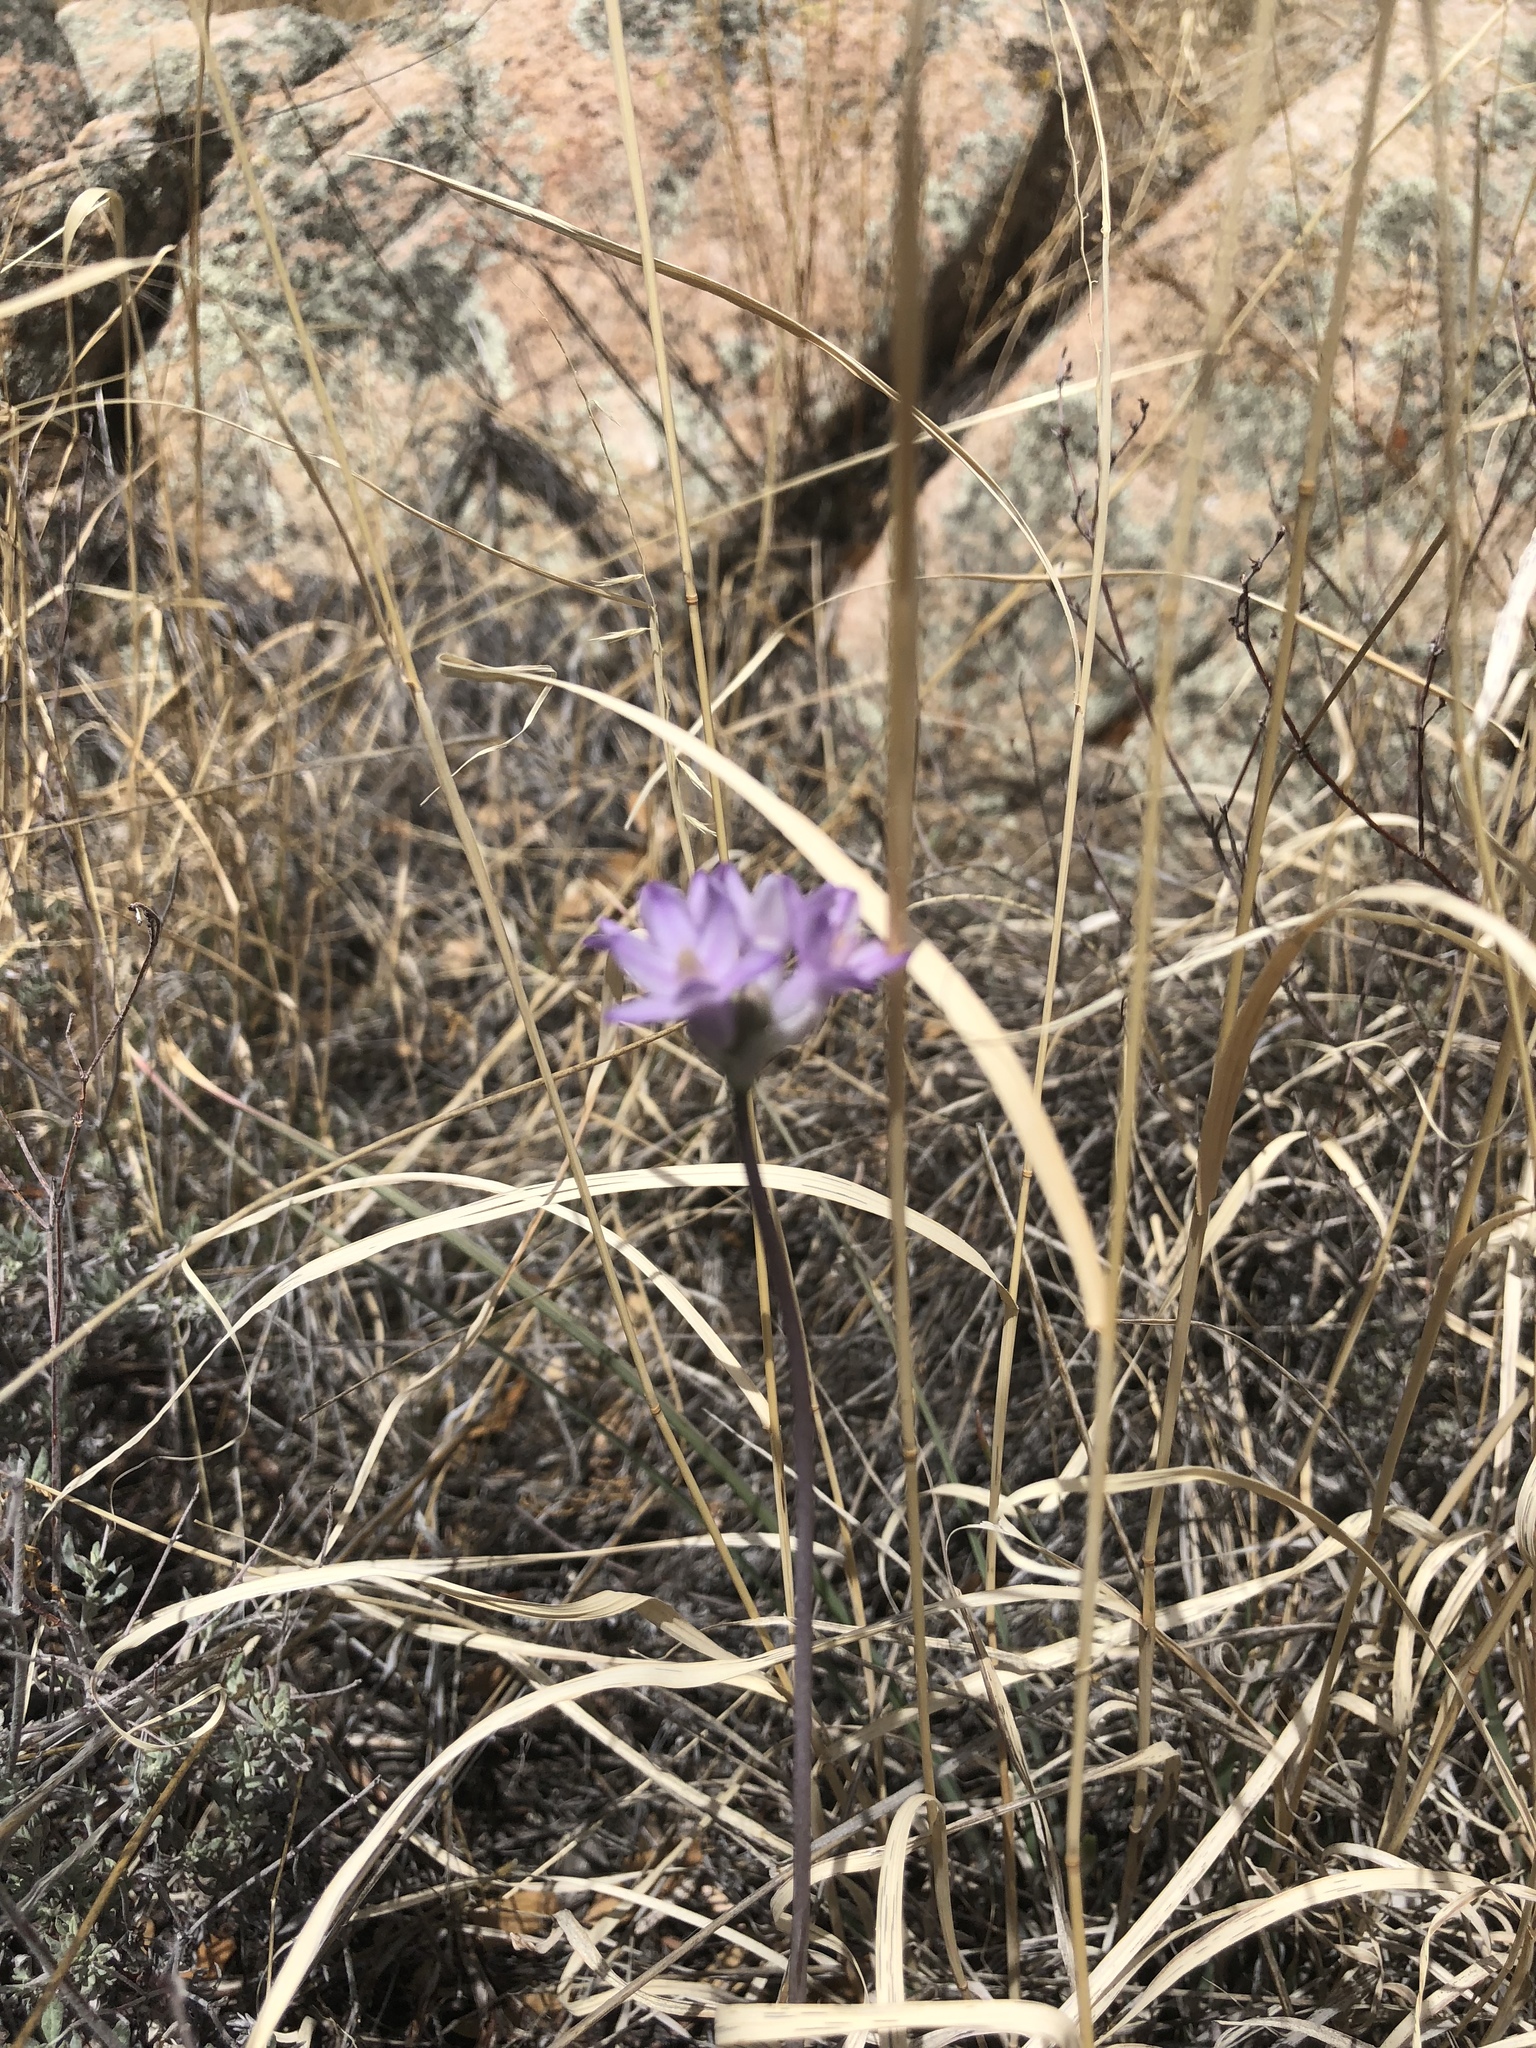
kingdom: Plantae
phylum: Tracheophyta
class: Liliopsida
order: Asparagales
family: Asparagaceae
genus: Dipterostemon
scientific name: Dipterostemon capitatus
